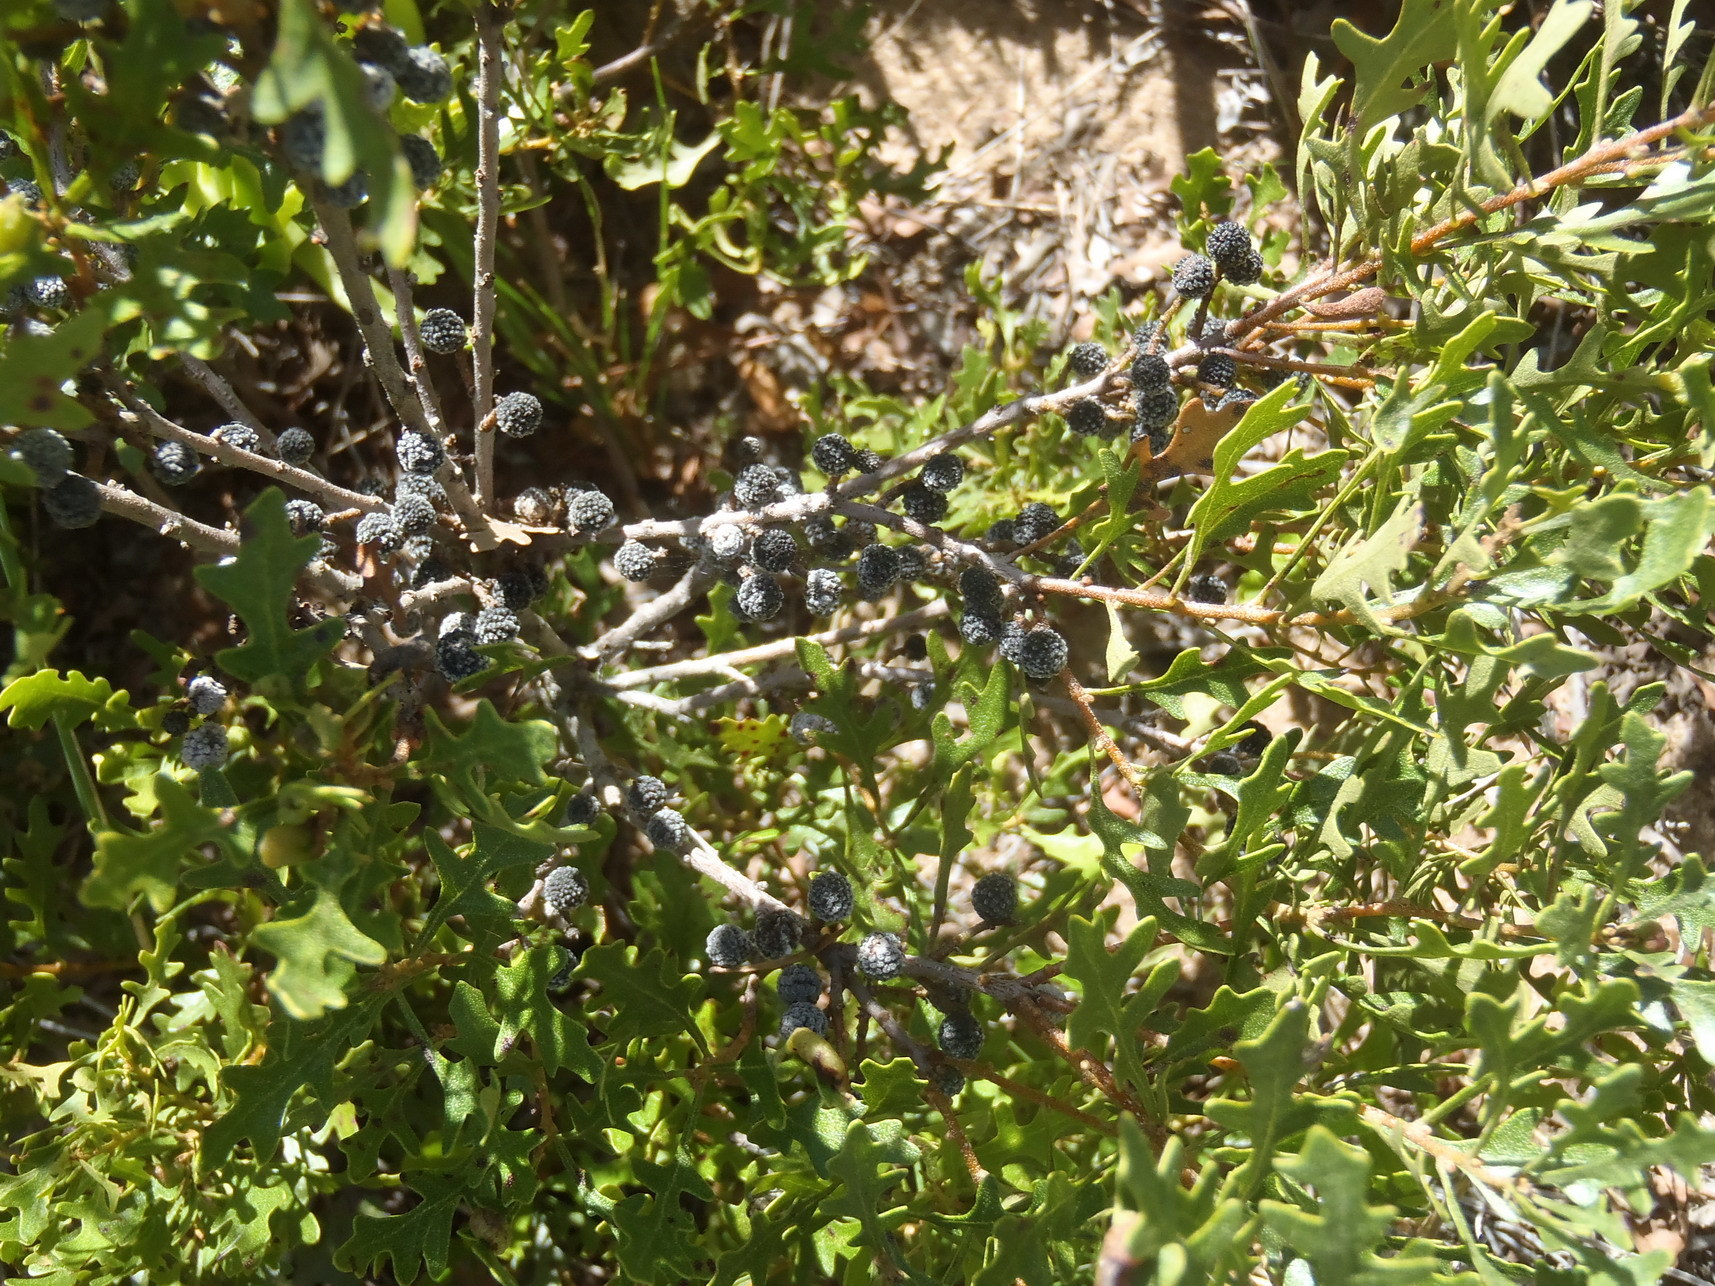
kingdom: Plantae
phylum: Tracheophyta
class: Magnoliopsida
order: Fagales
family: Myricaceae
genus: Morella
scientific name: Morella quercifolia
